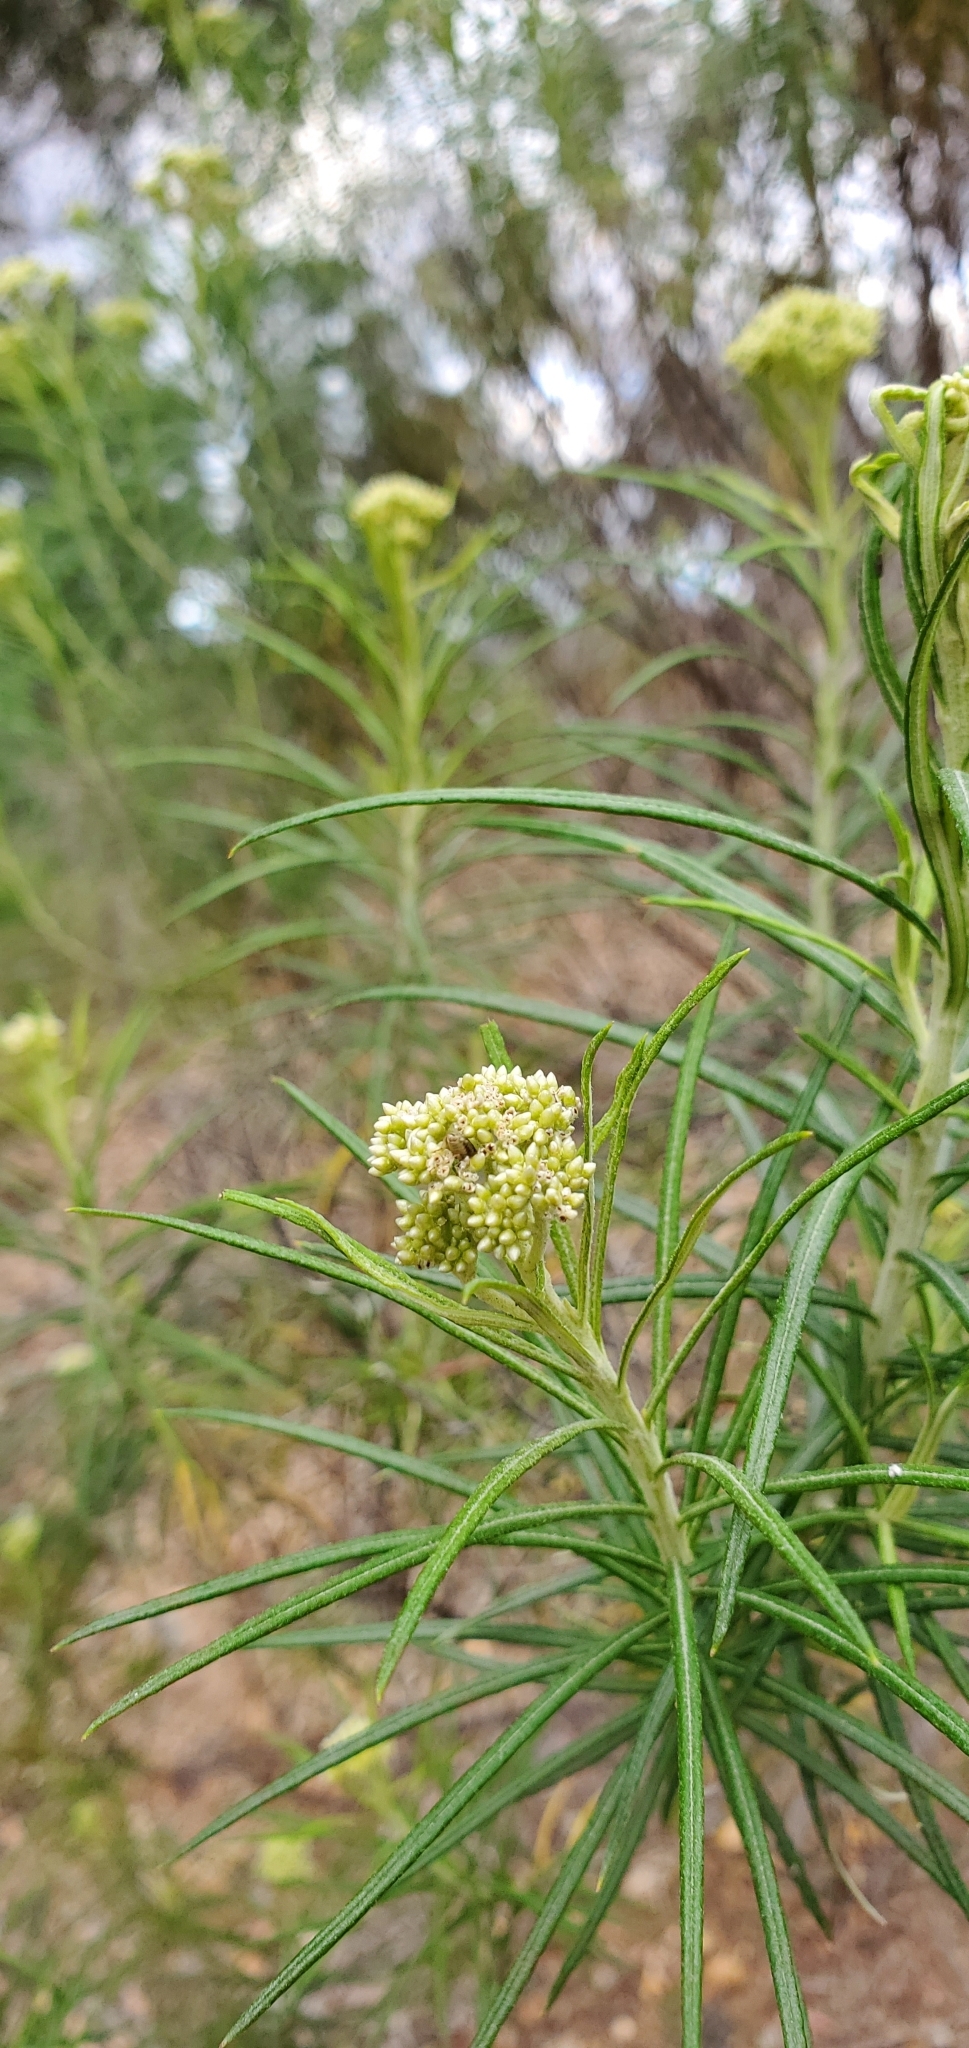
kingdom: Plantae
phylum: Tracheophyta
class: Magnoliopsida
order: Asterales
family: Asteraceae
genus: Cassinia
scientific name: Cassinia longifolia
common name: Longleaf-dogwood
